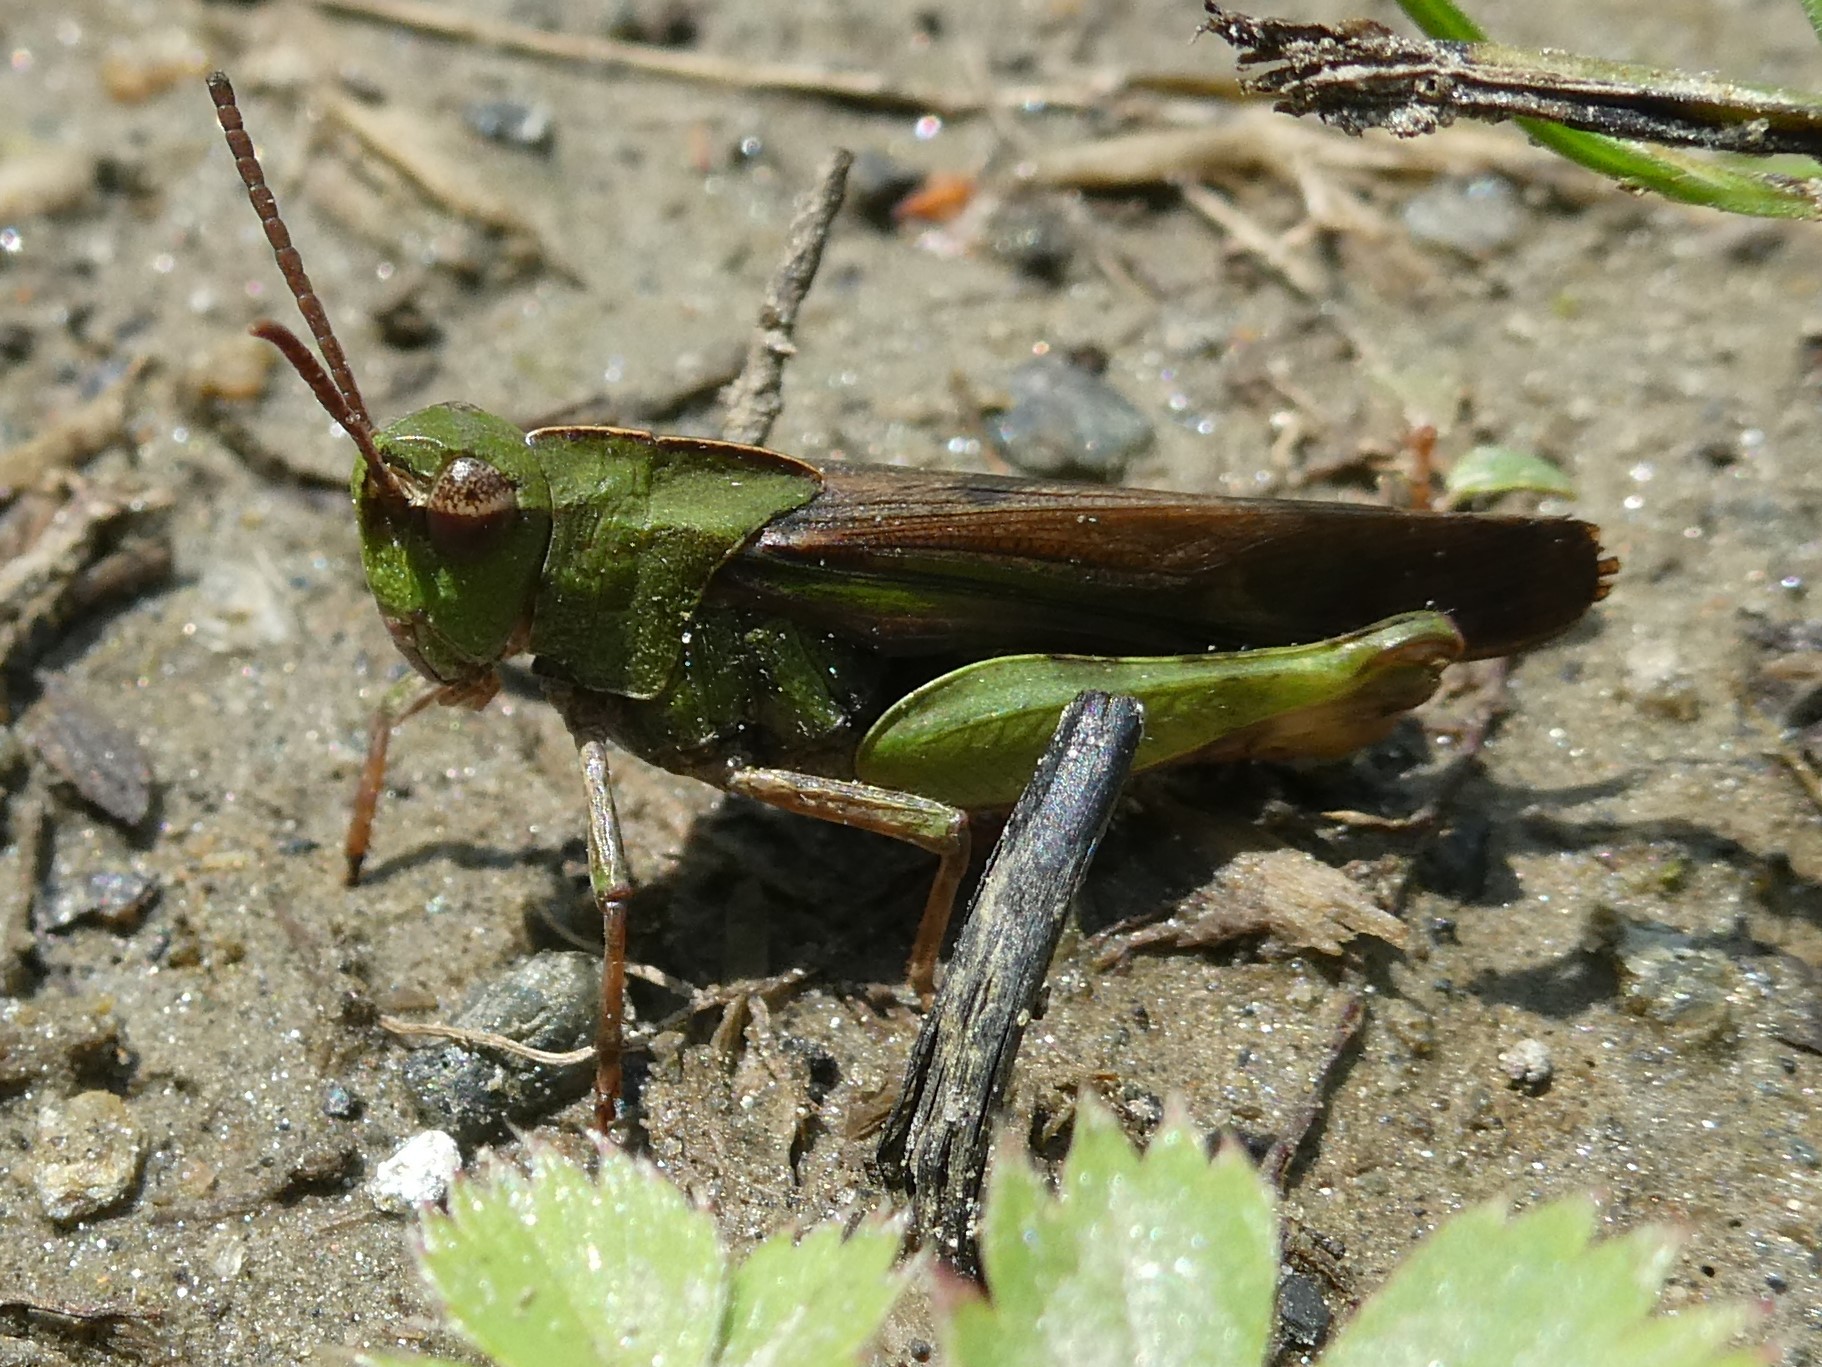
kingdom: Animalia
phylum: Arthropoda
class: Insecta
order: Orthoptera
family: Acrididae
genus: Chortophaga
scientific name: Chortophaga viridifasciata
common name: Green-striped grasshopper
